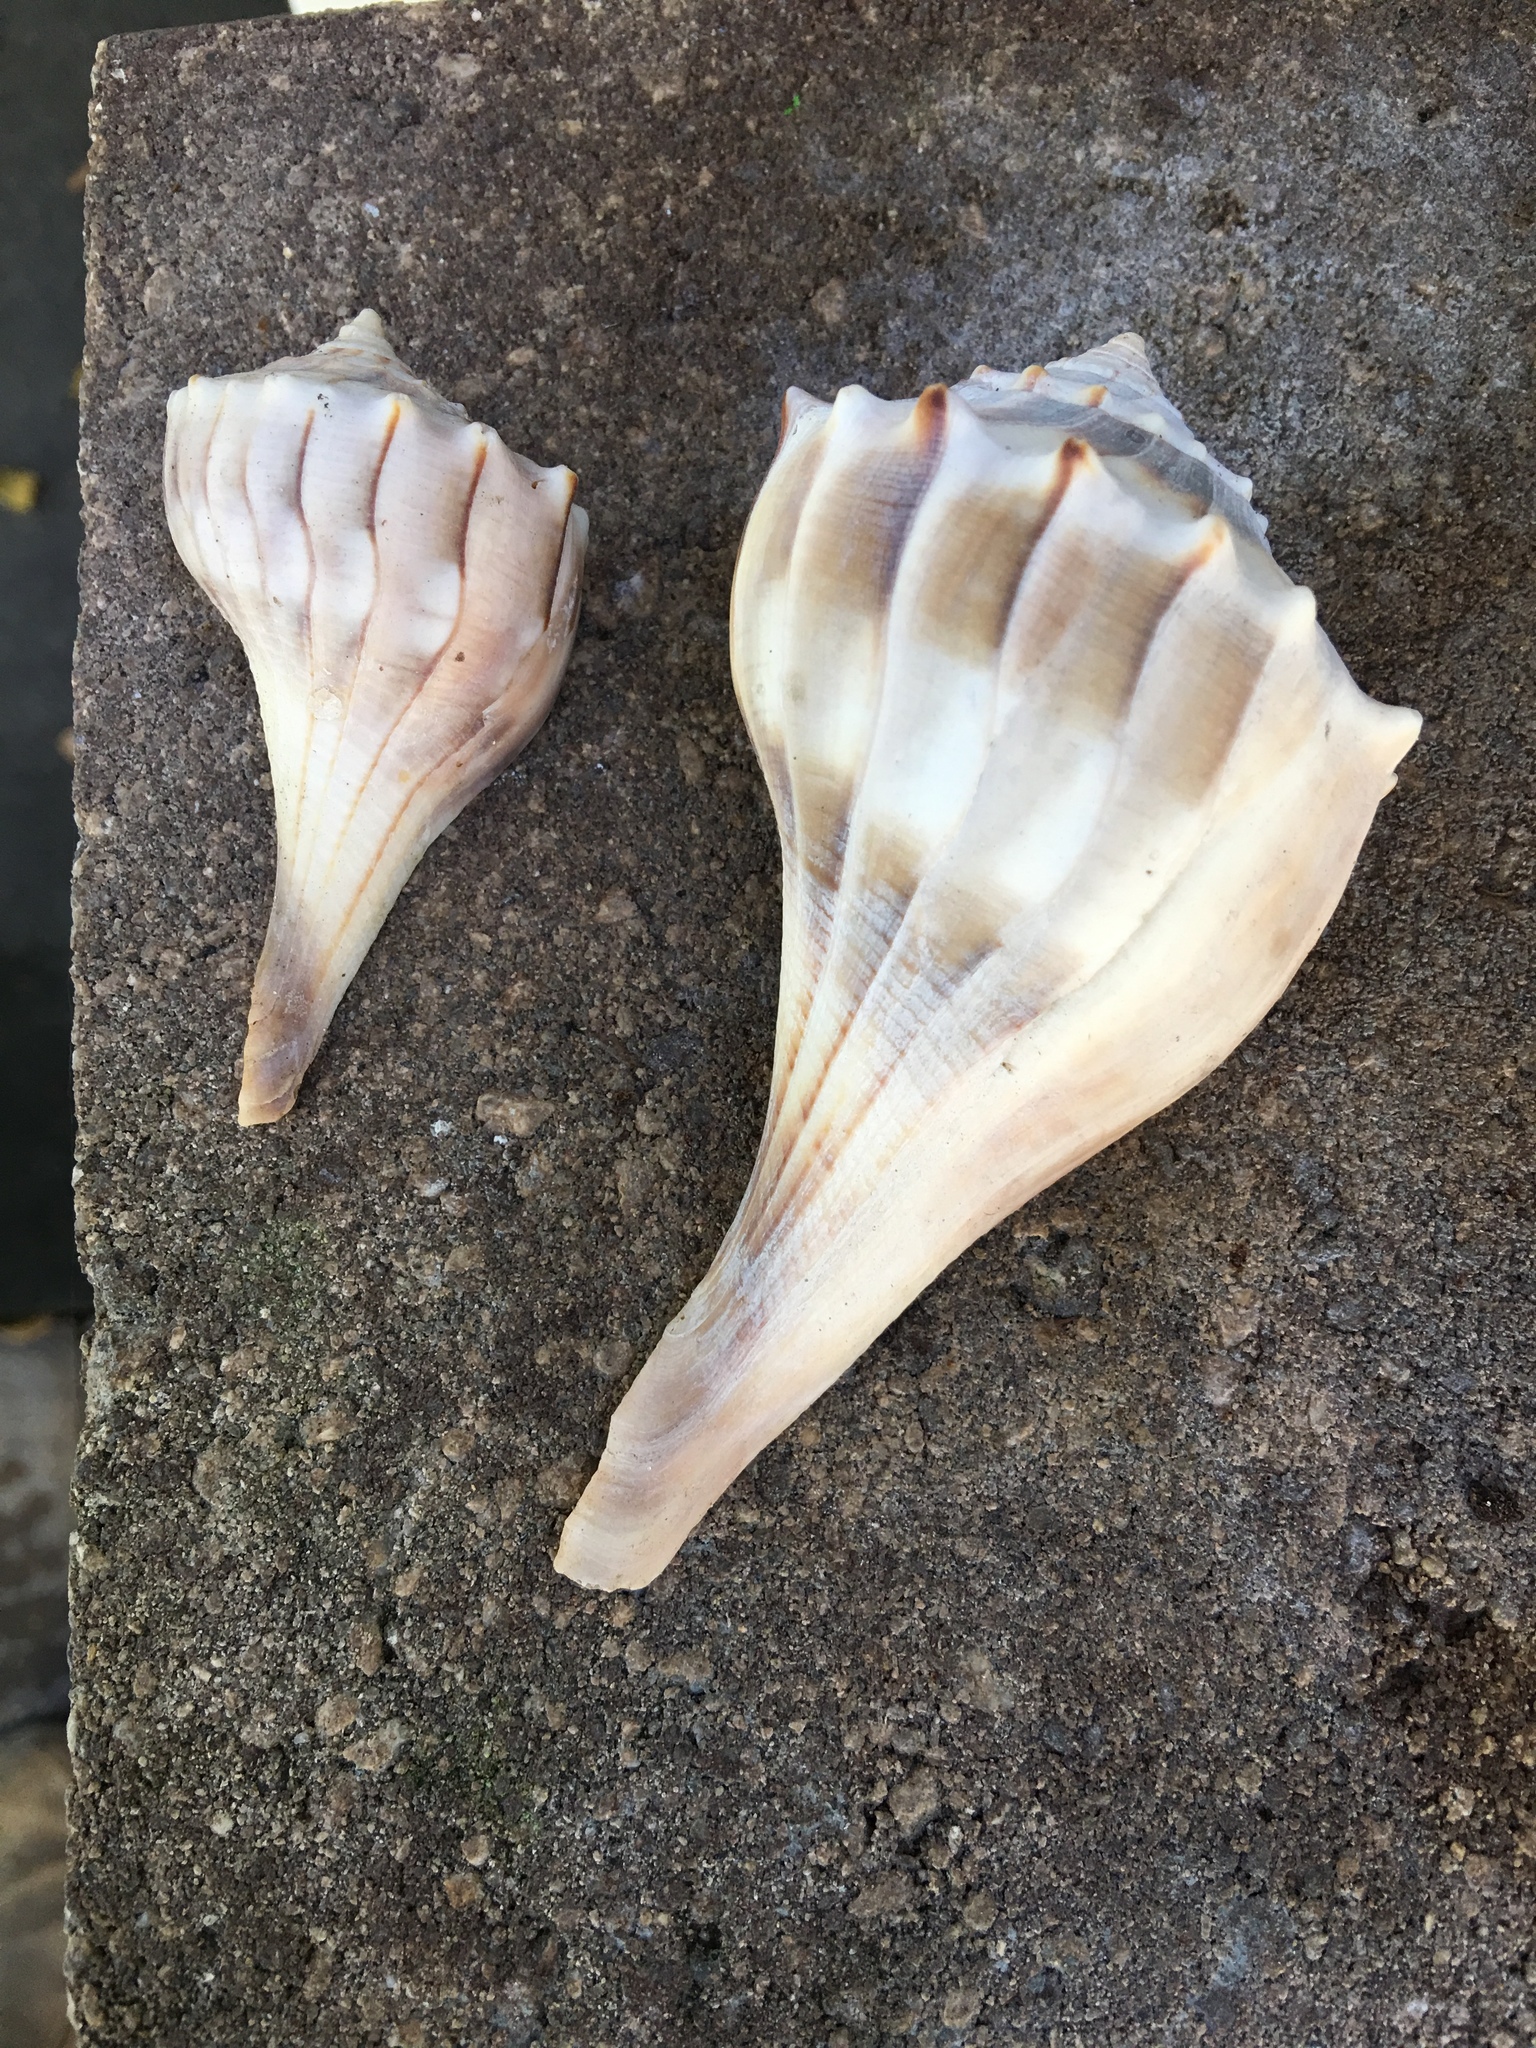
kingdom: Animalia
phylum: Mollusca
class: Gastropoda
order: Neogastropoda
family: Busyconidae
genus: Sinistrofulgur
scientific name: Sinistrofulgur sinistrum
